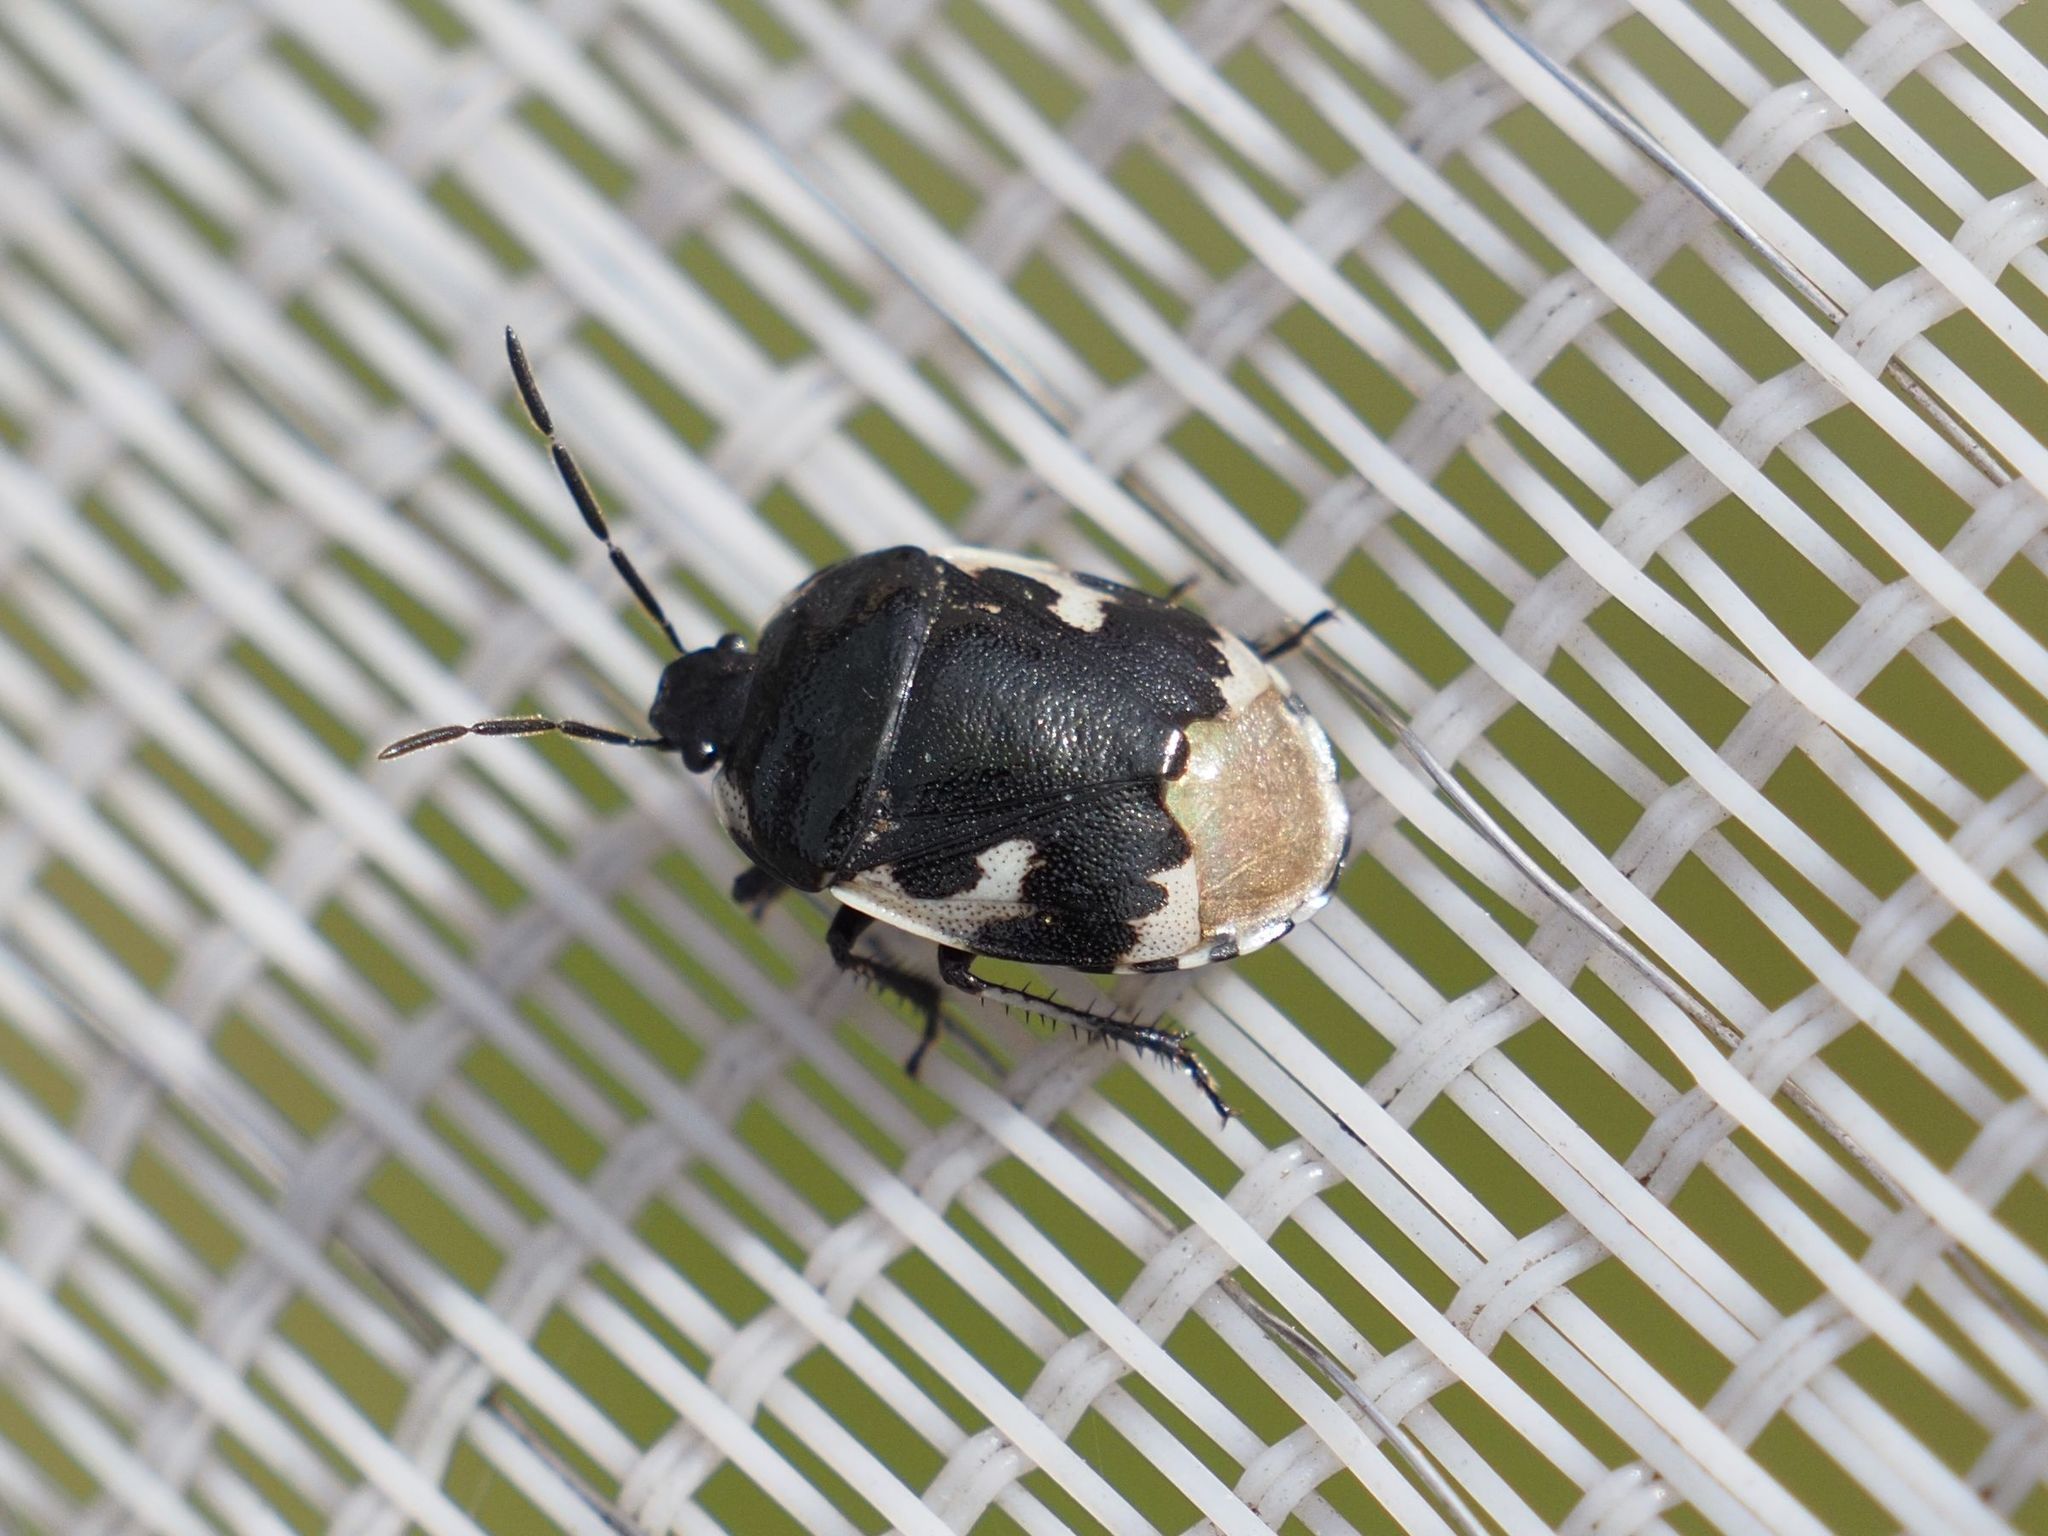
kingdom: Animalia
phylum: Arthropoda
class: Insecta
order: Hemiptera
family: Cydnidae
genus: Tritomegas
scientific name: Tritomegas bicolor
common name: Pied shieldbug
